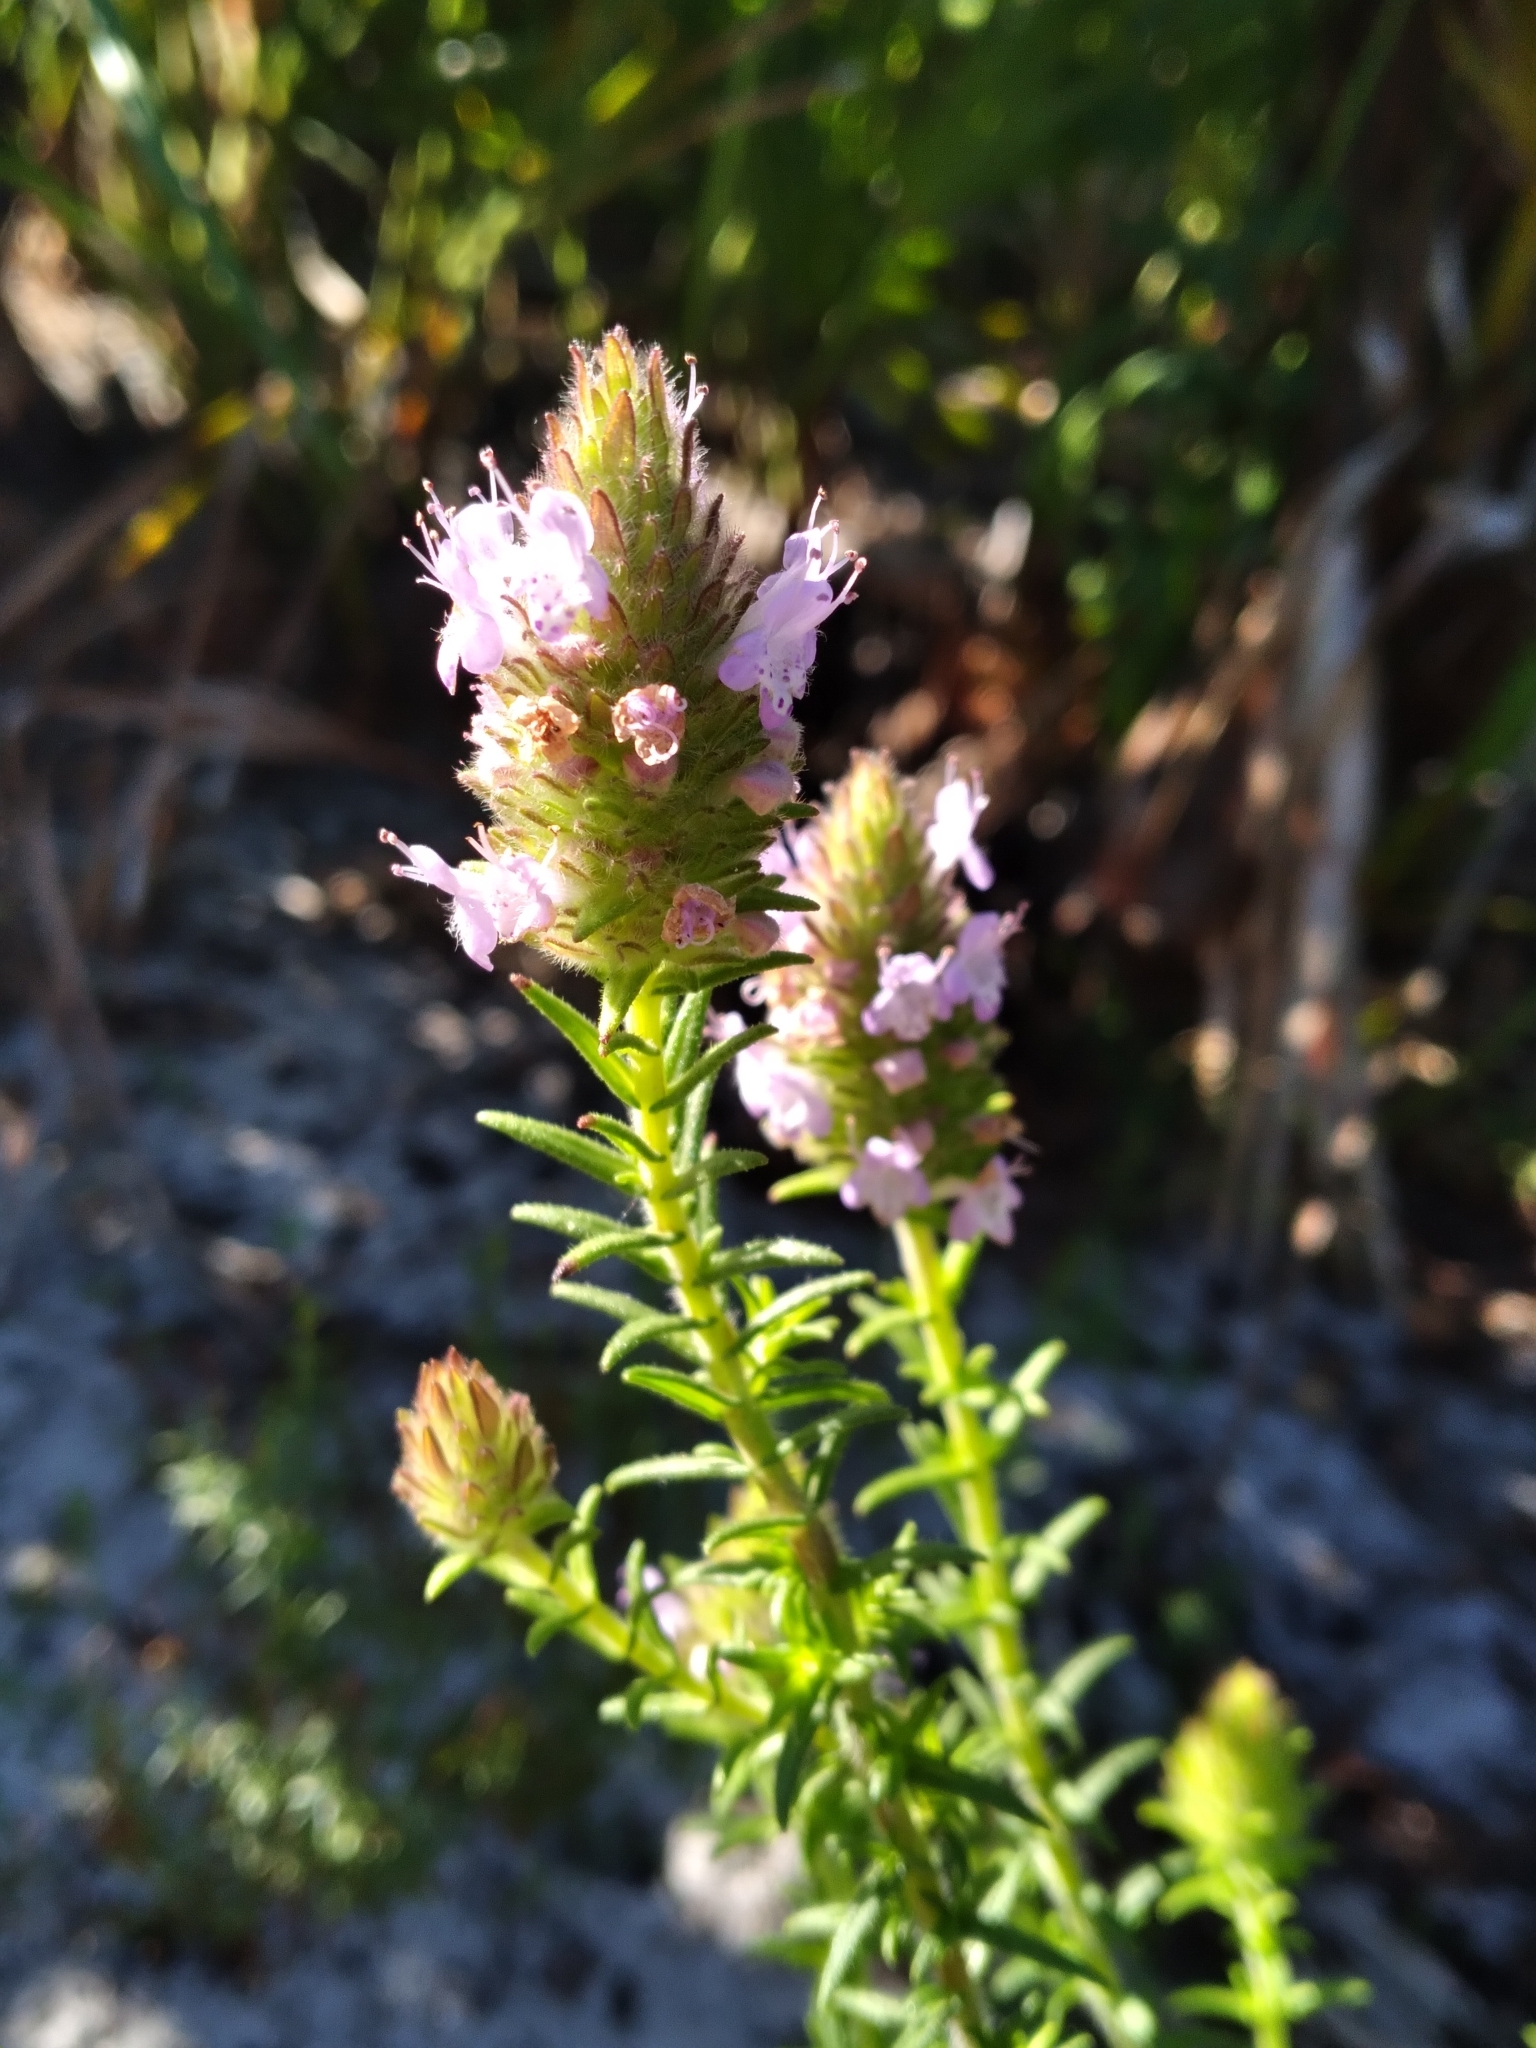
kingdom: Plantae
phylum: Tracheophyta
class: Magnoliopsida
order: Lamiales
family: Lamiaceae
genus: Piloblephis
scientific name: Piloblephis rigida
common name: Wild pennyroyal
